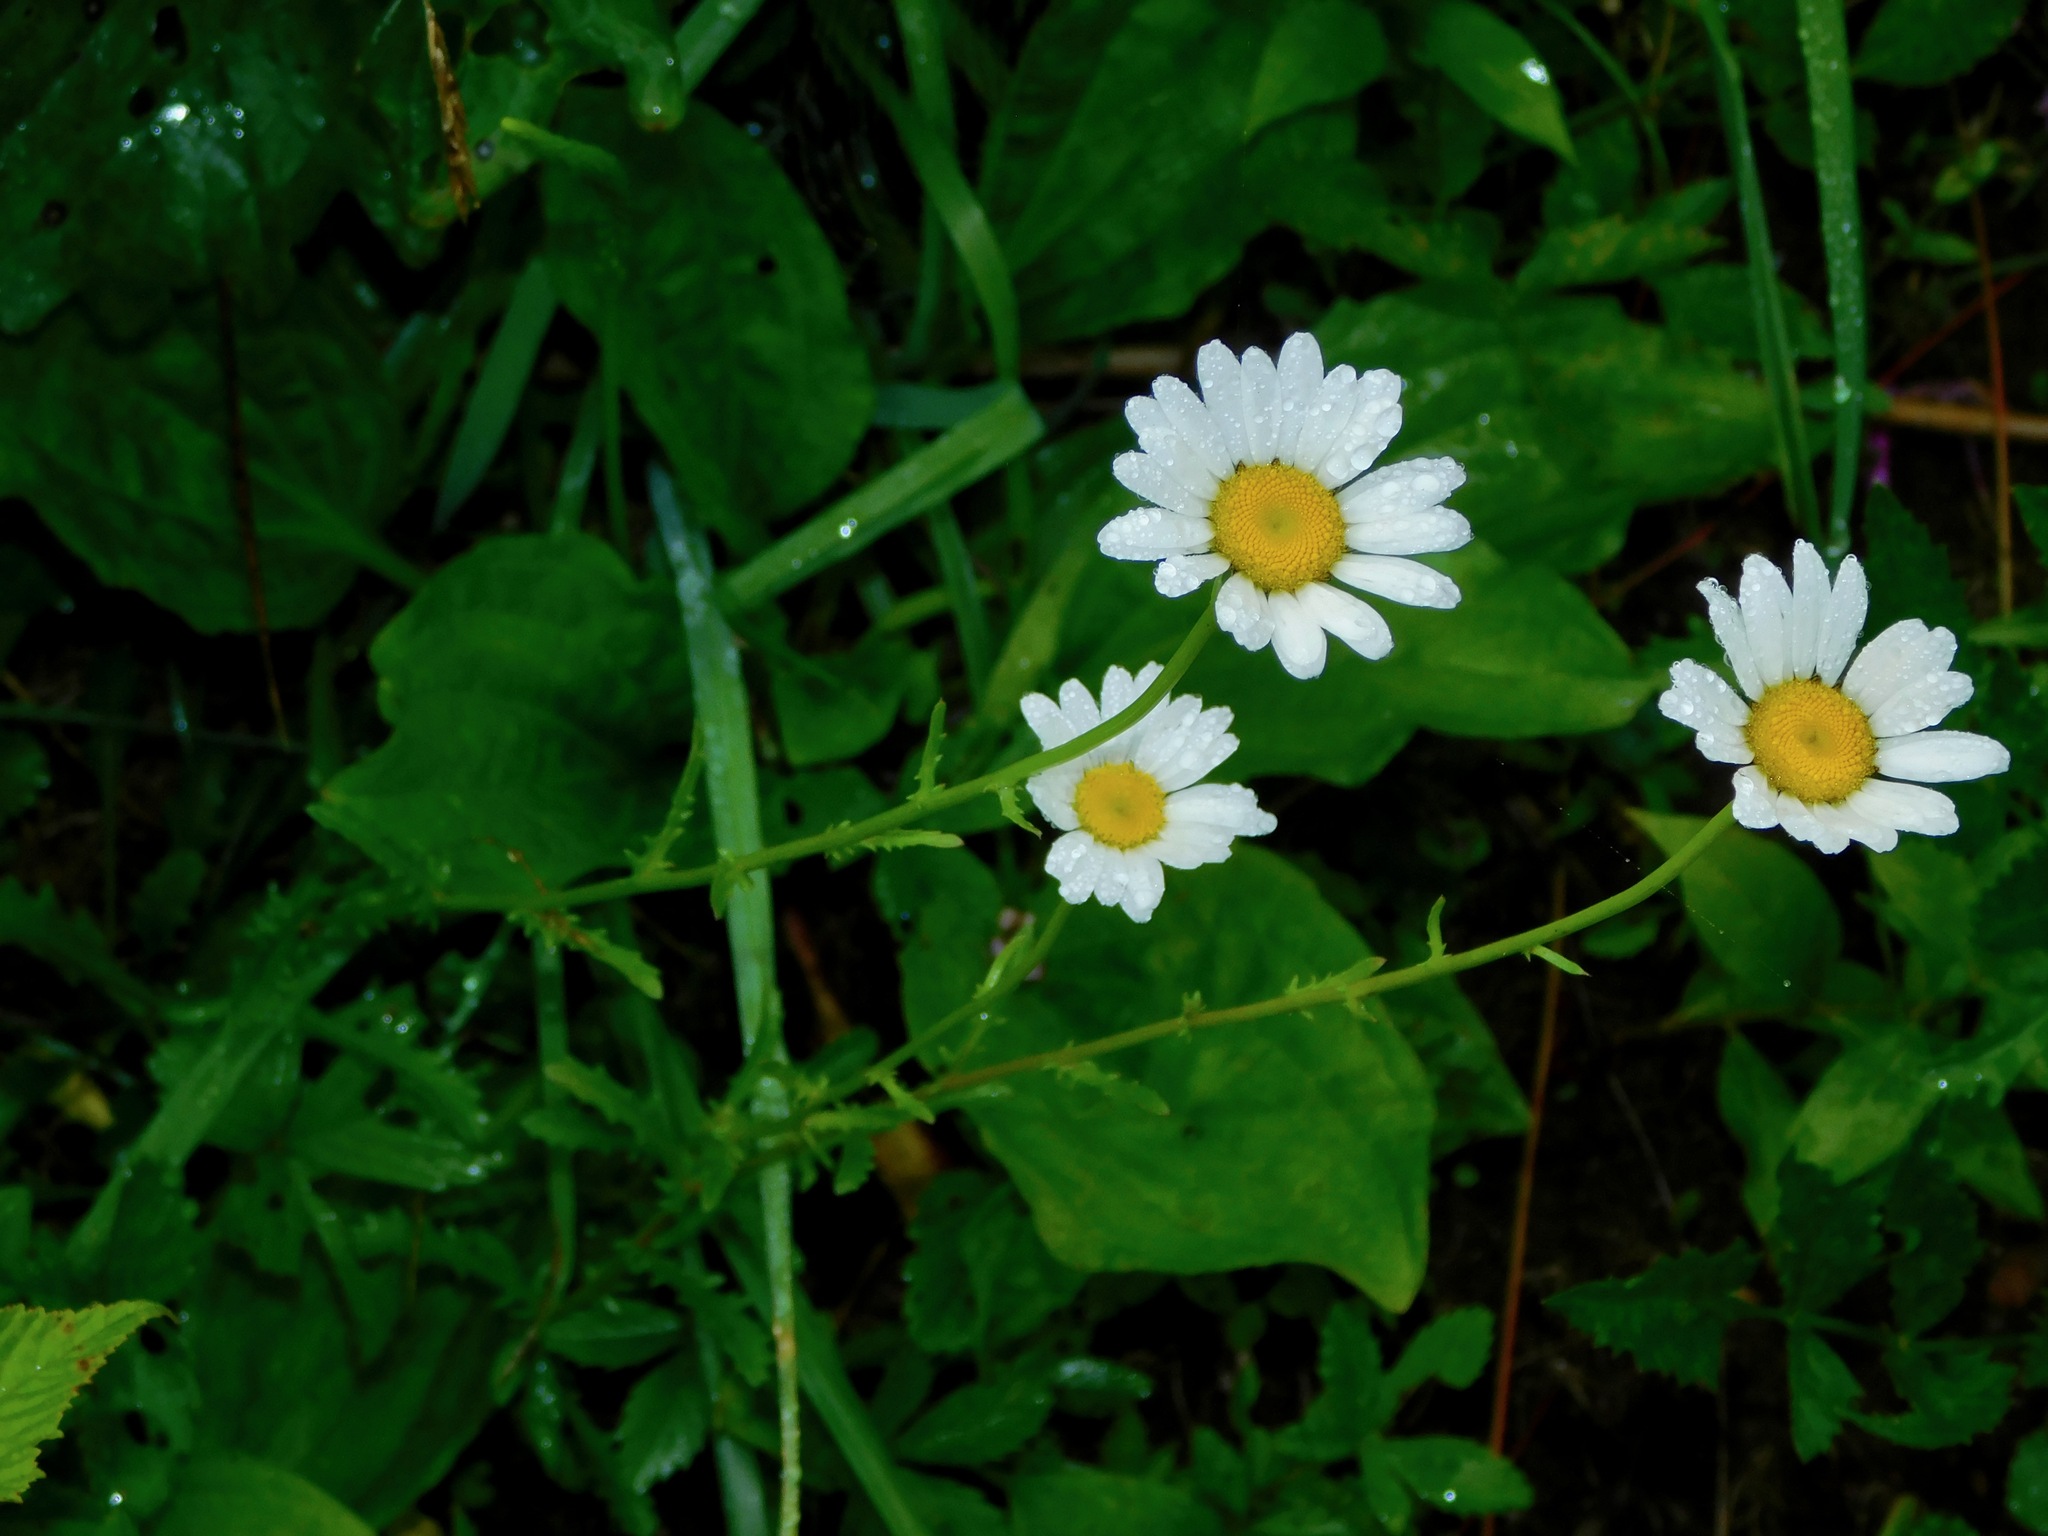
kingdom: Plantae
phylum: Tracheophyta
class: Magnoliopsida
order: Asterales
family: Asteraceae
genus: Leucanthemum
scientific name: Leucanthemum vulgare
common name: Oxeye daisy
